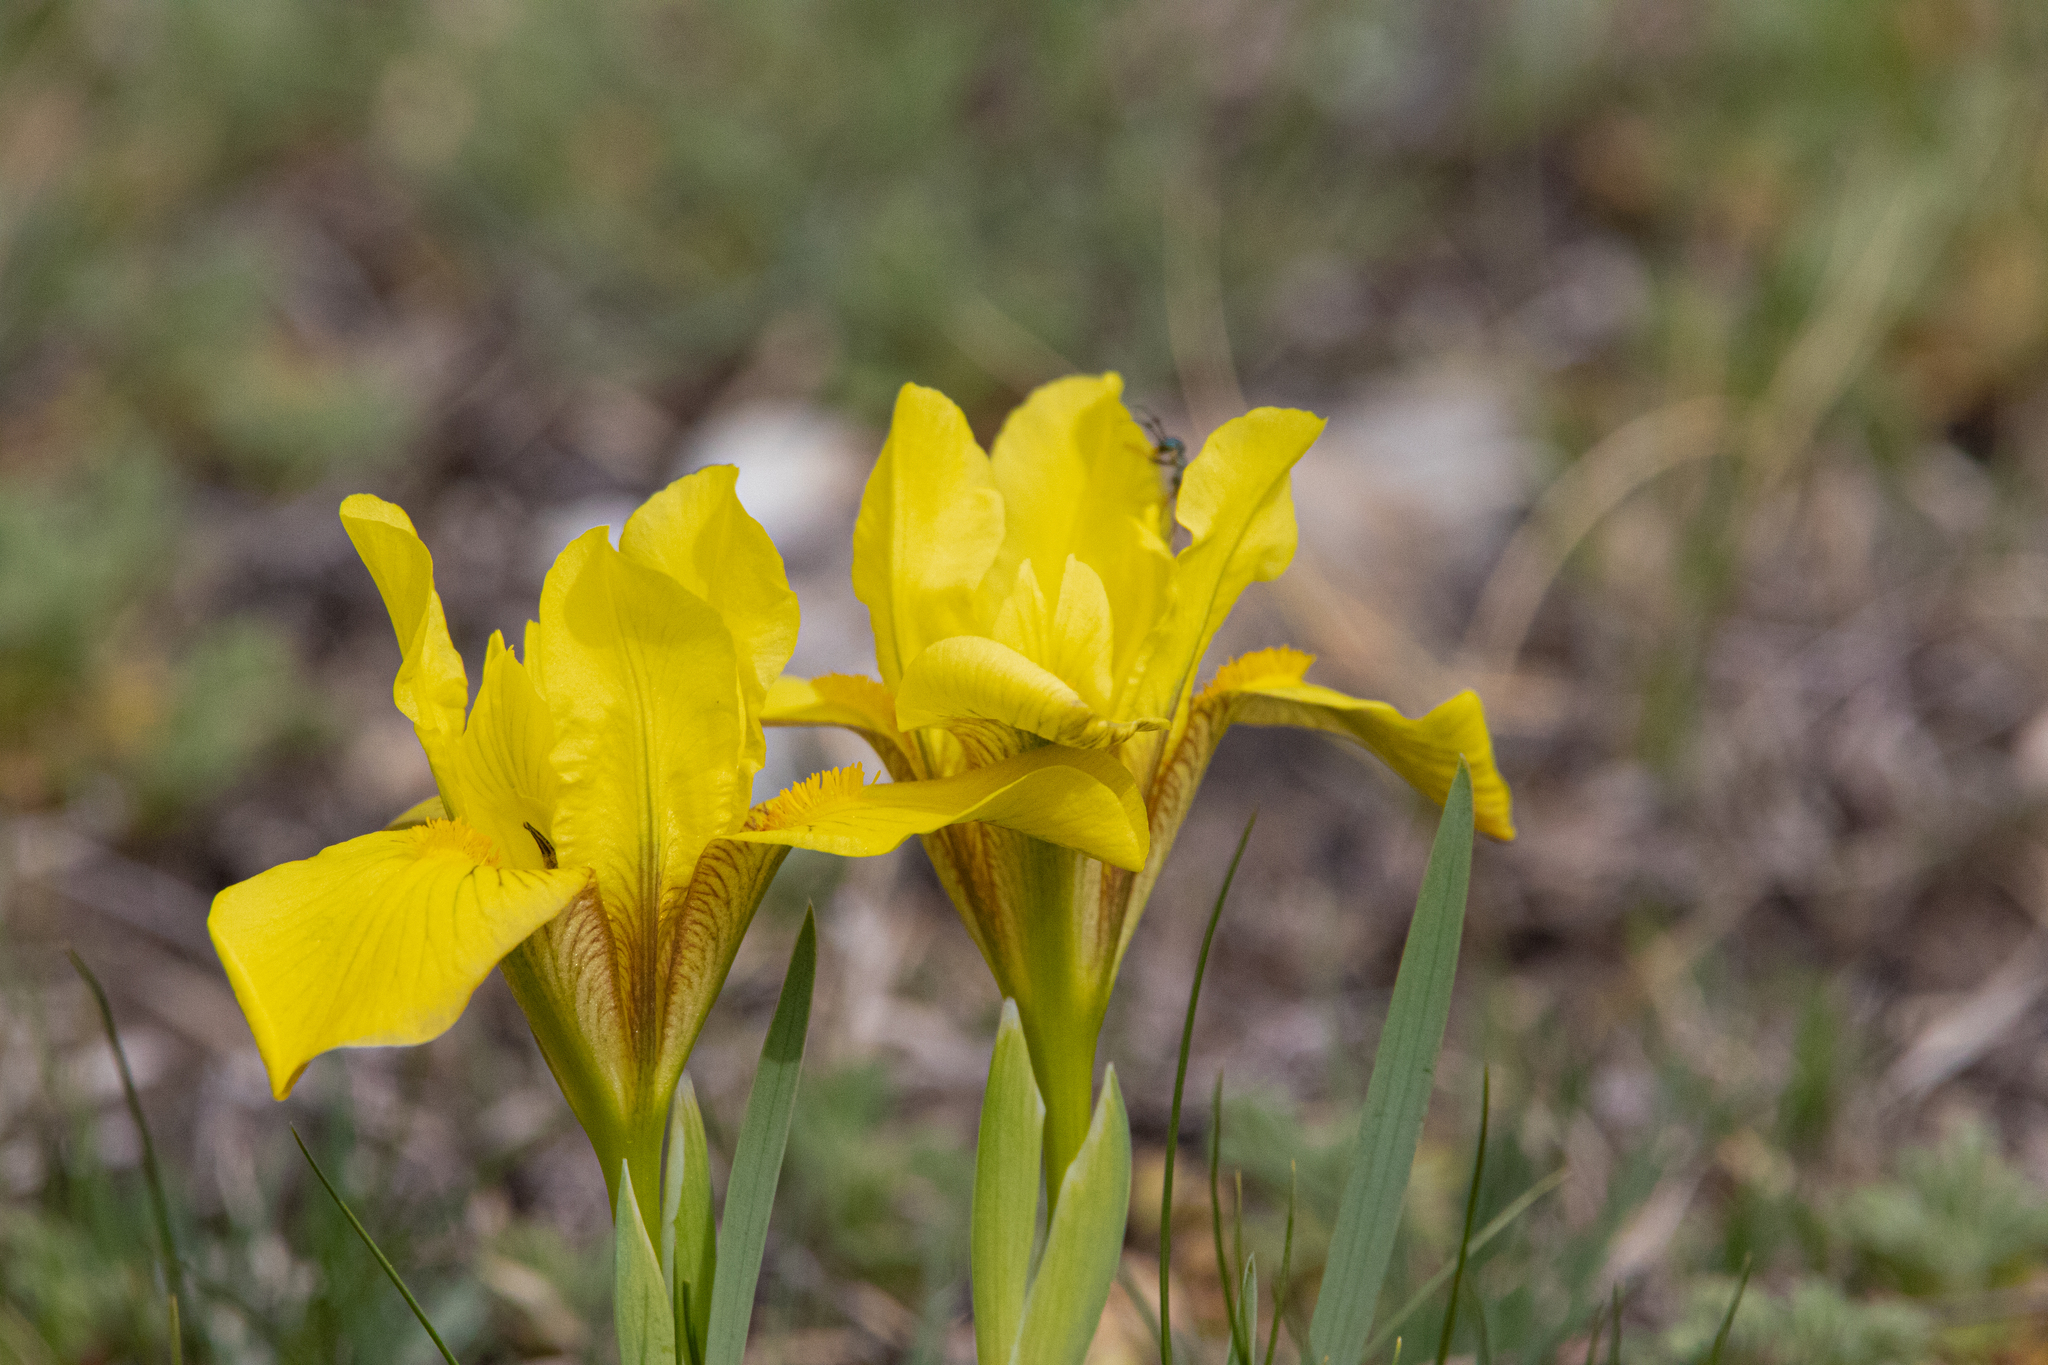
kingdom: Plantae
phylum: Tracheophyta
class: Liliopsida
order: Asparagales
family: Iridaceae
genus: Iris
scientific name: Iris humilis
